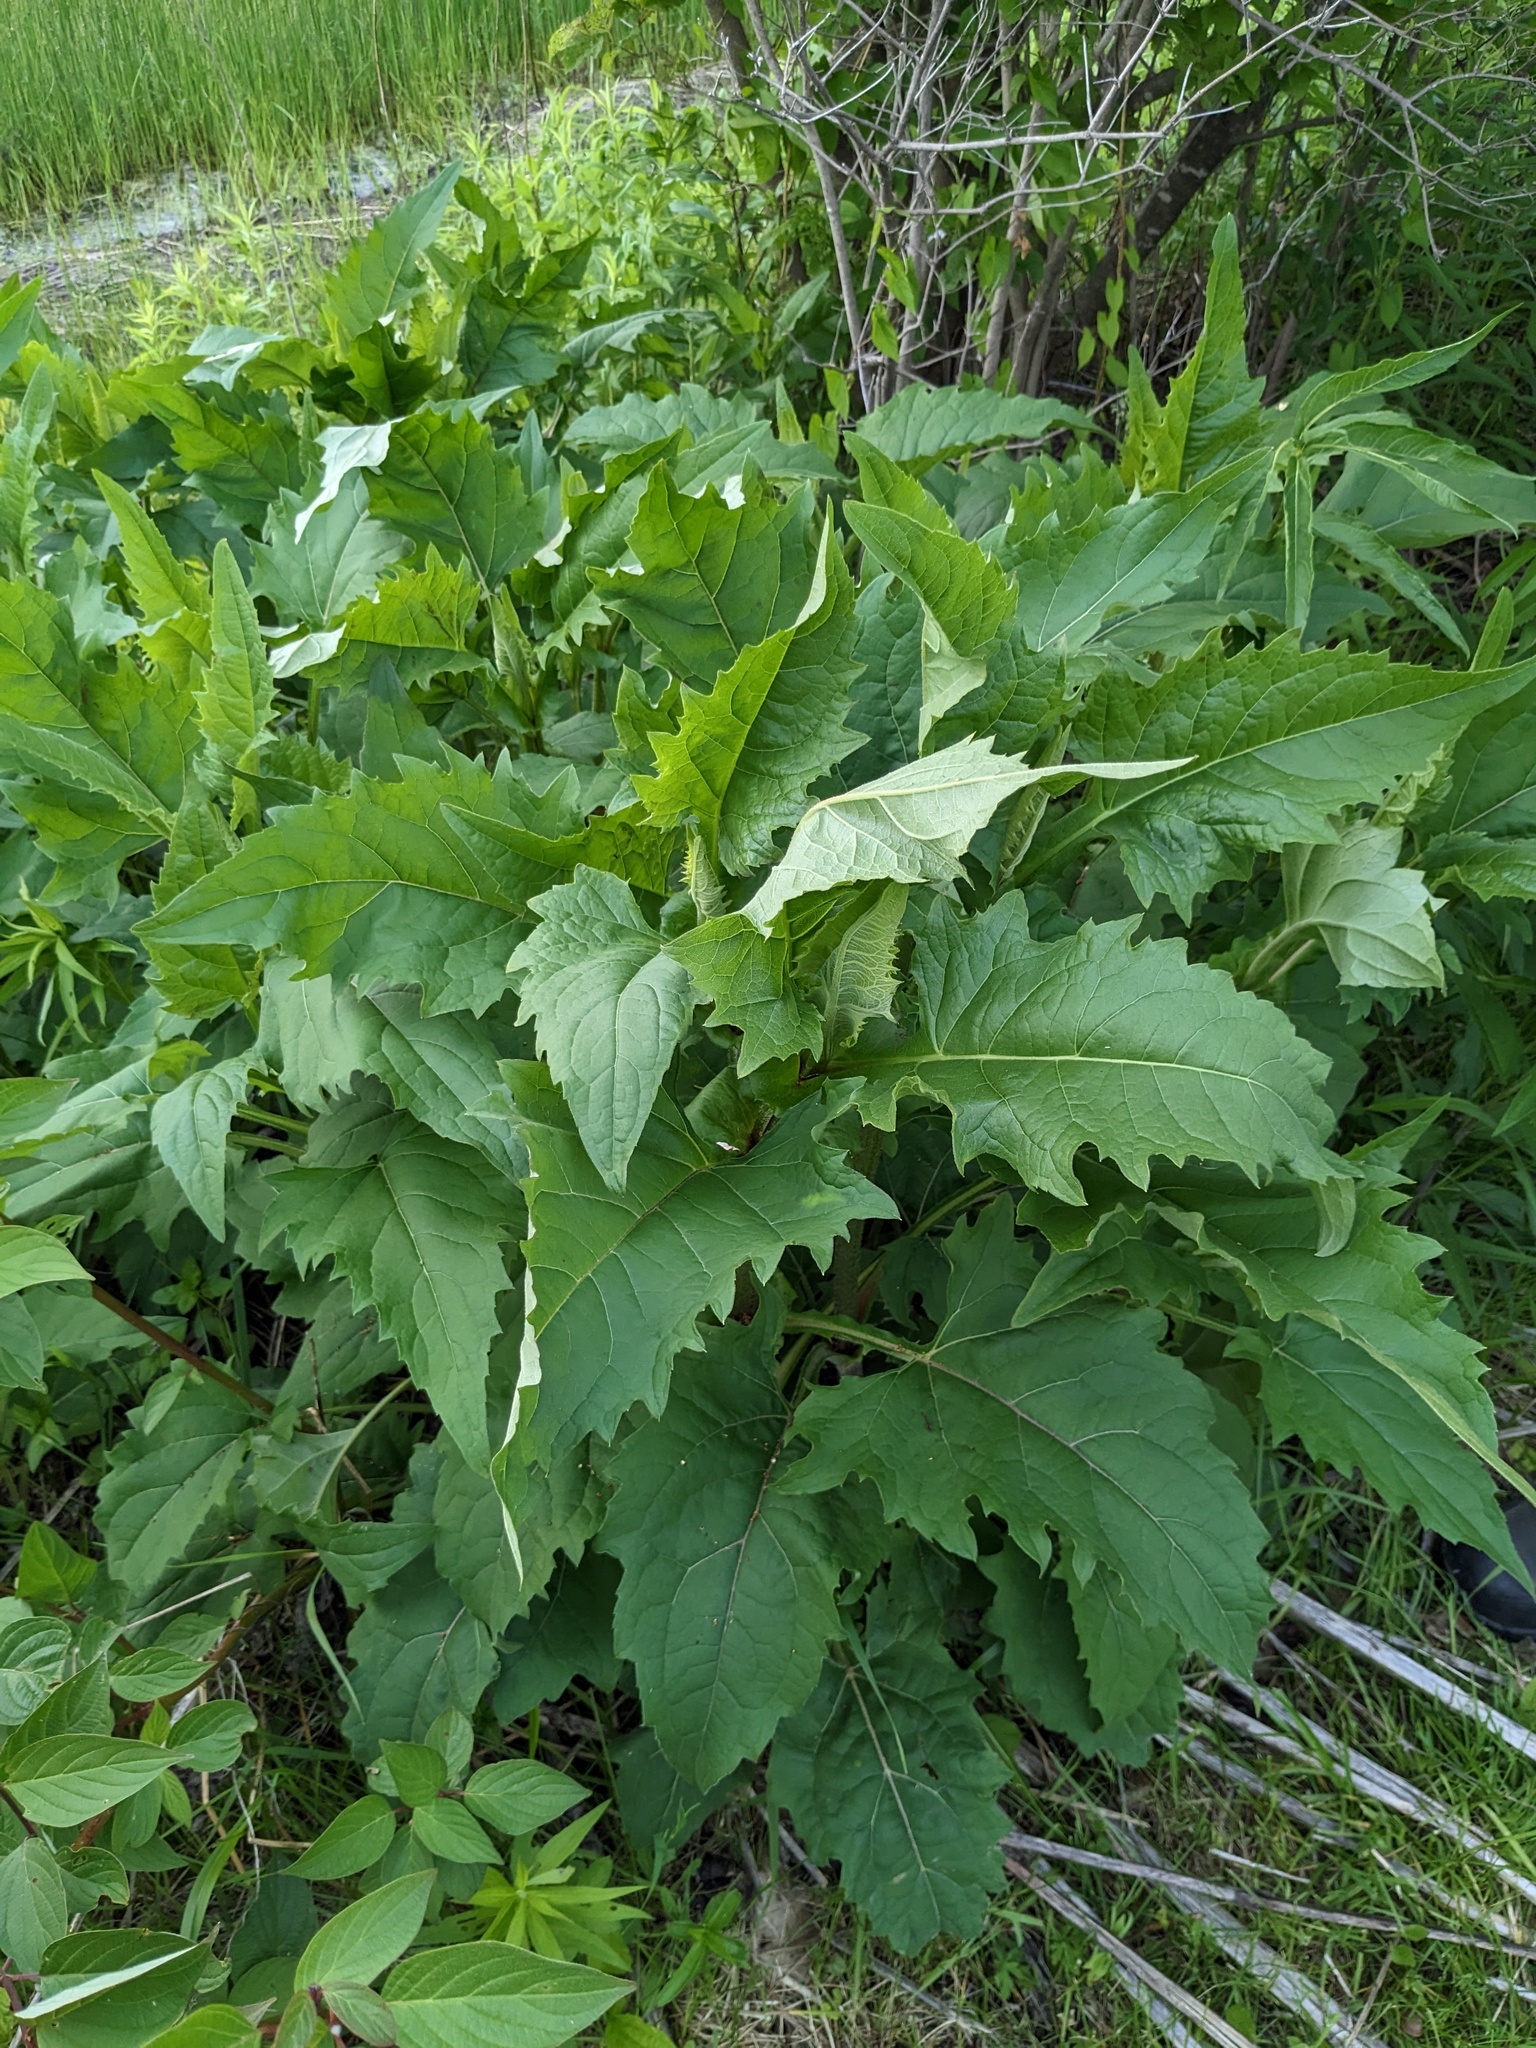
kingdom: Plantae
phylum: Tracheophyta
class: Magnoliopsida
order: Asterales
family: Asteraceae
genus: Silphium
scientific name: Silphium perfoliatum
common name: Cup-plant
